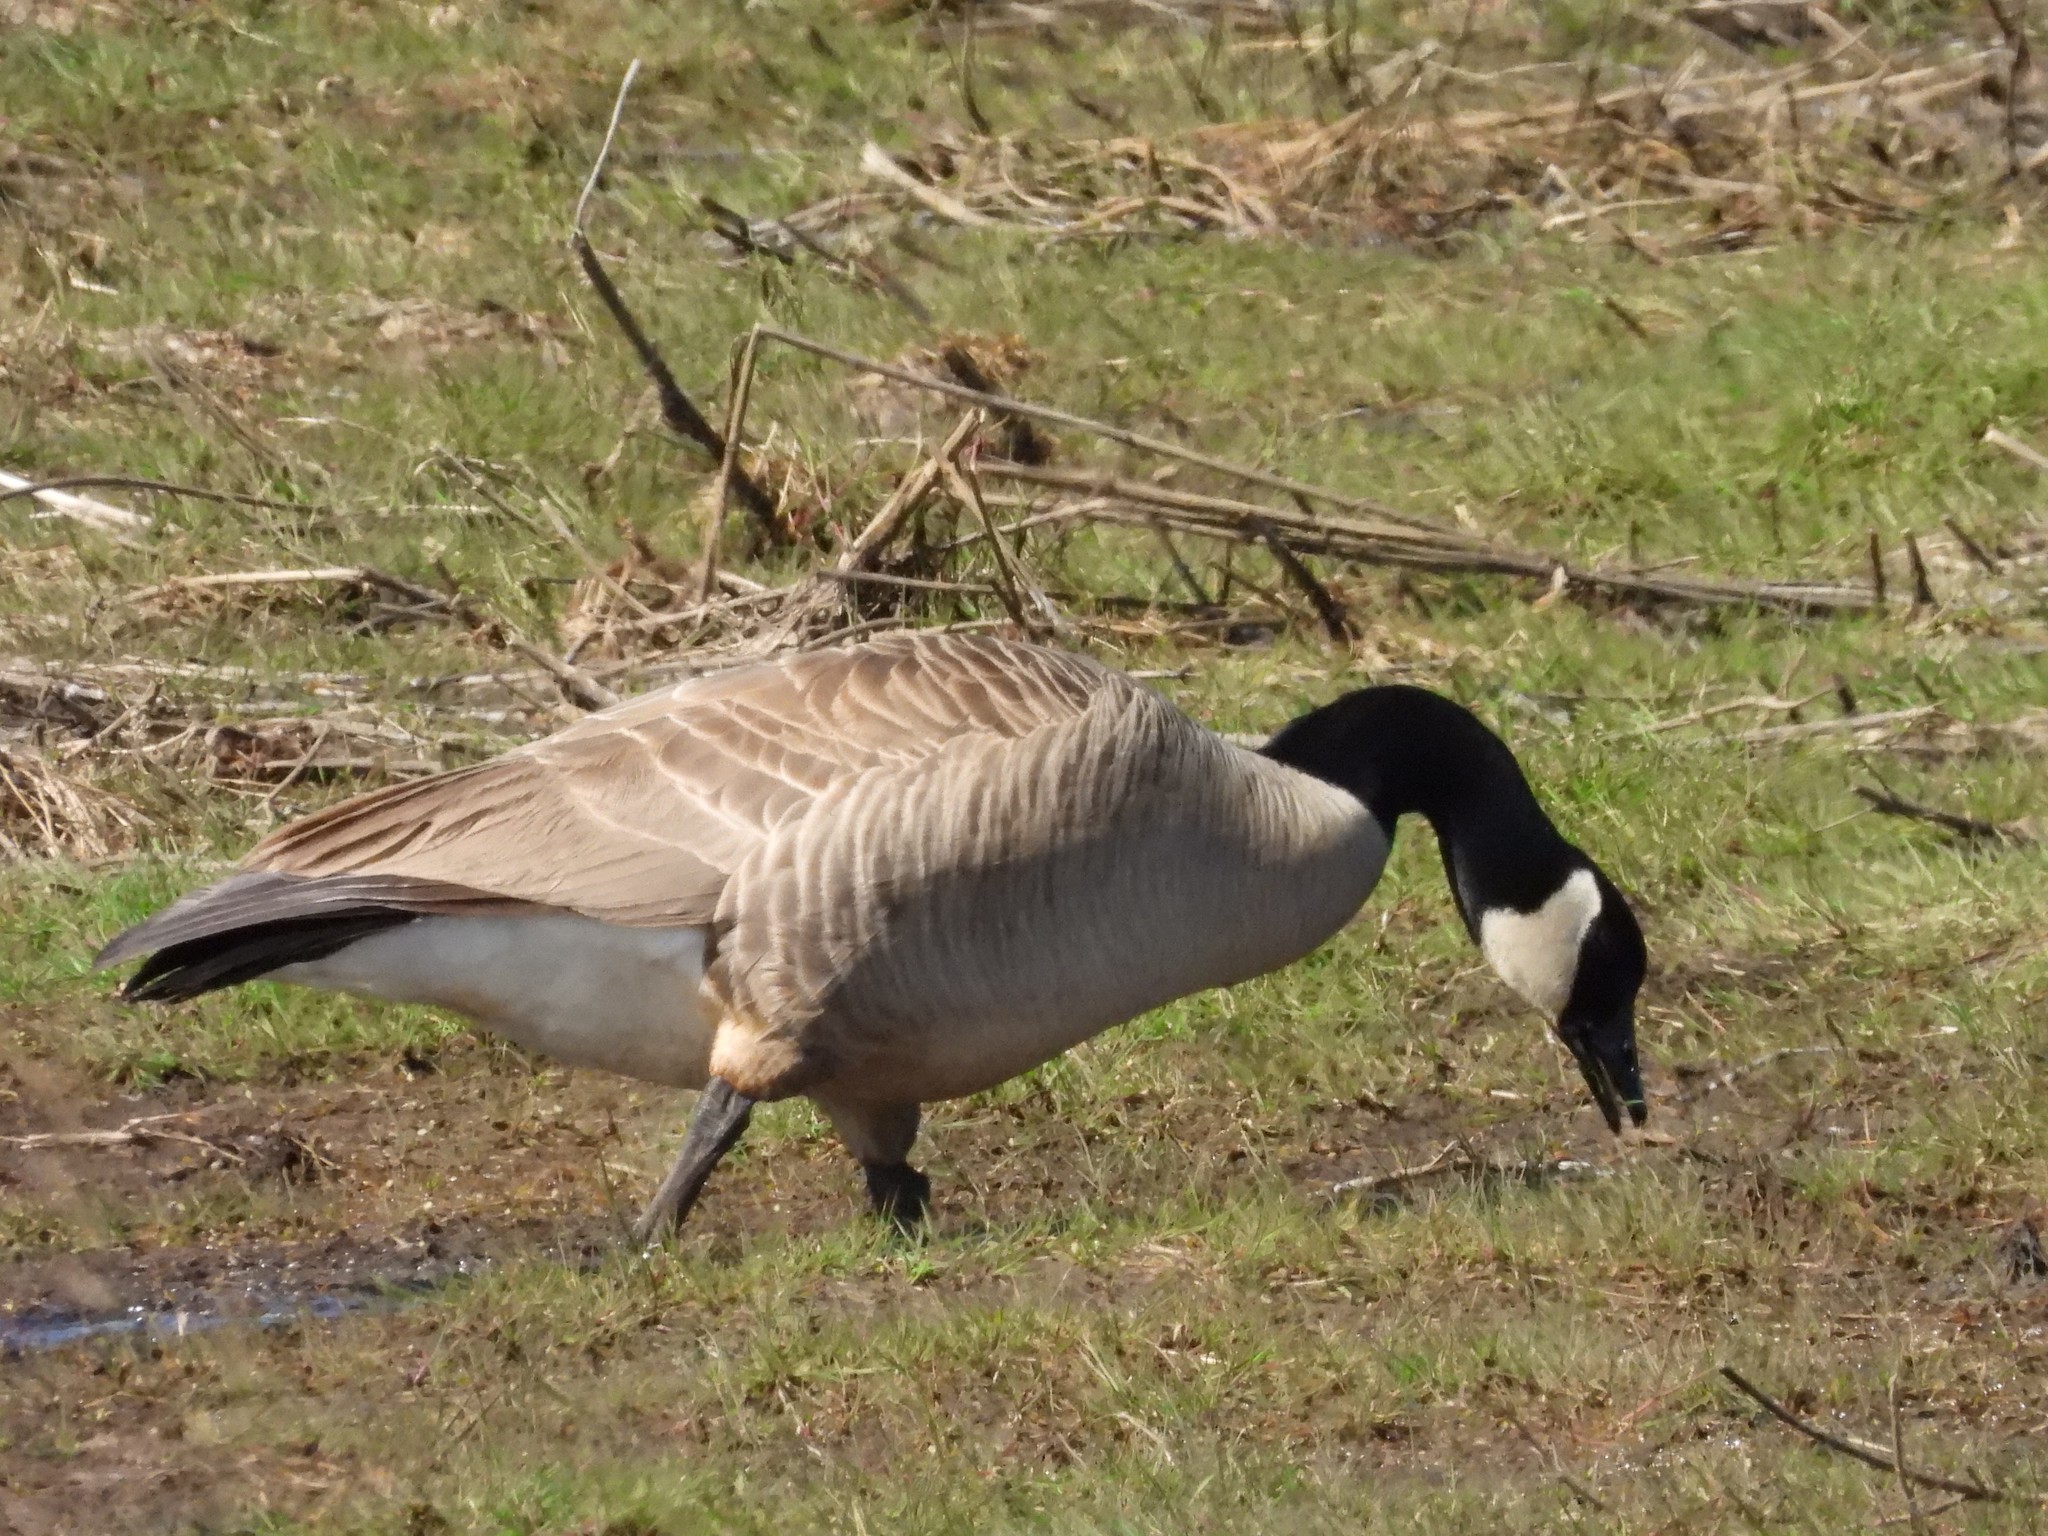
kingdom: Animalia
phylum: Chordata
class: Aves
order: Anseriformes
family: Anatidae
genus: Branta
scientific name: Branta canadensis
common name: Canada goose
